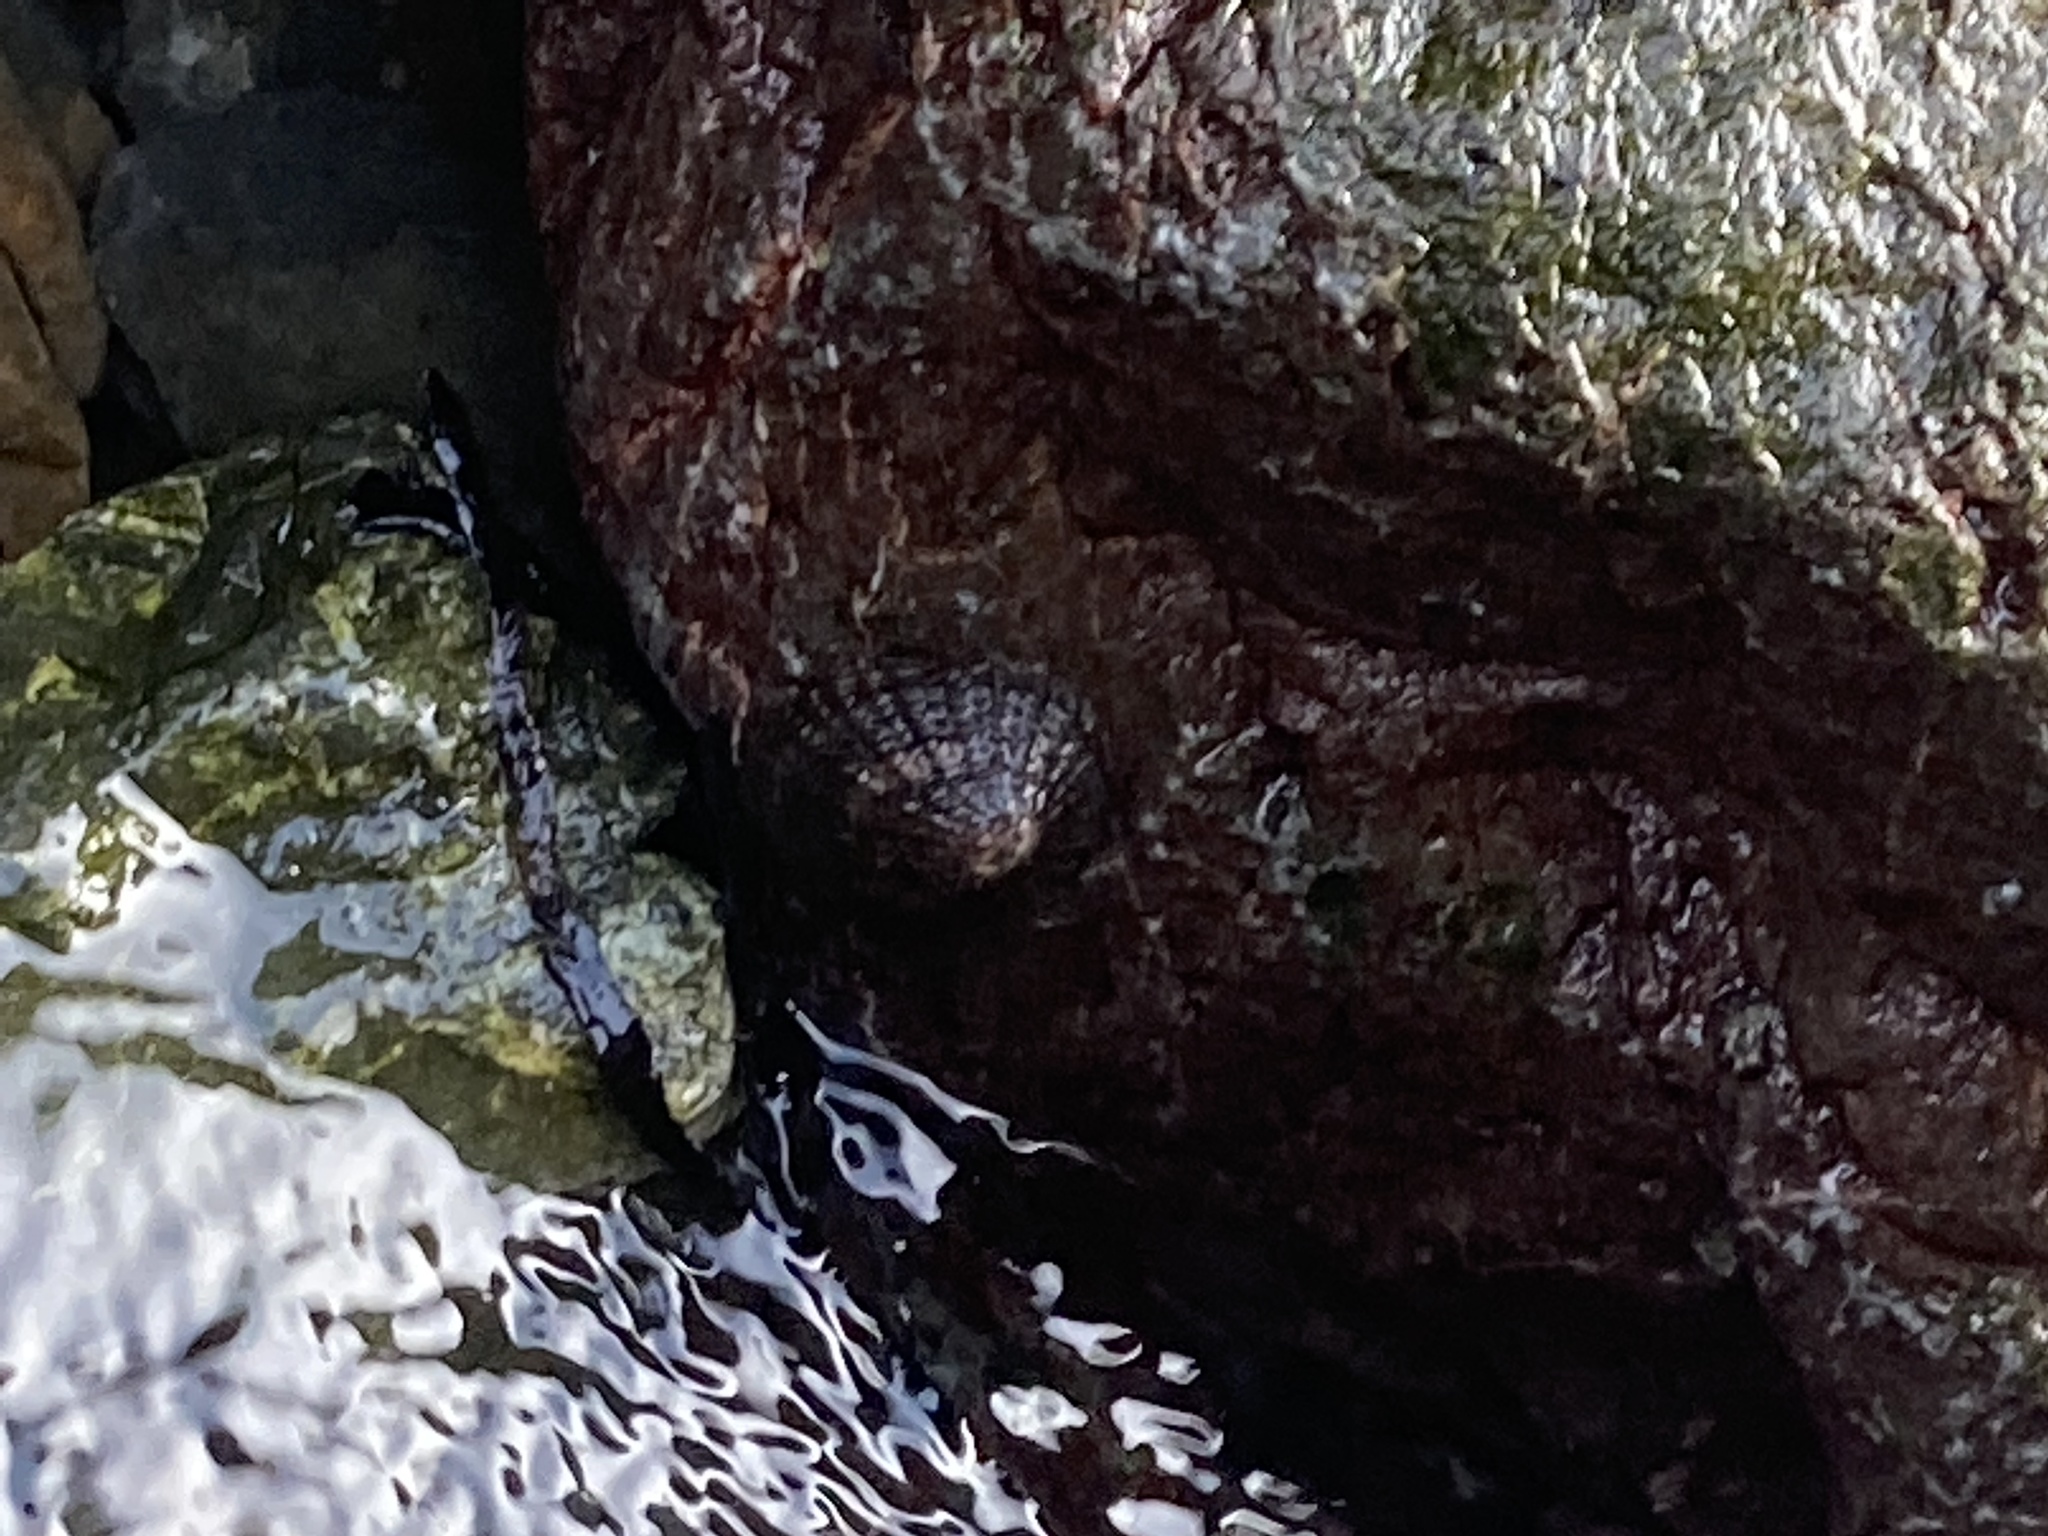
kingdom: Animalia
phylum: Mollusca
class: Gastropoda
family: Nacellidae
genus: Cellana
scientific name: Cellana denticulata
